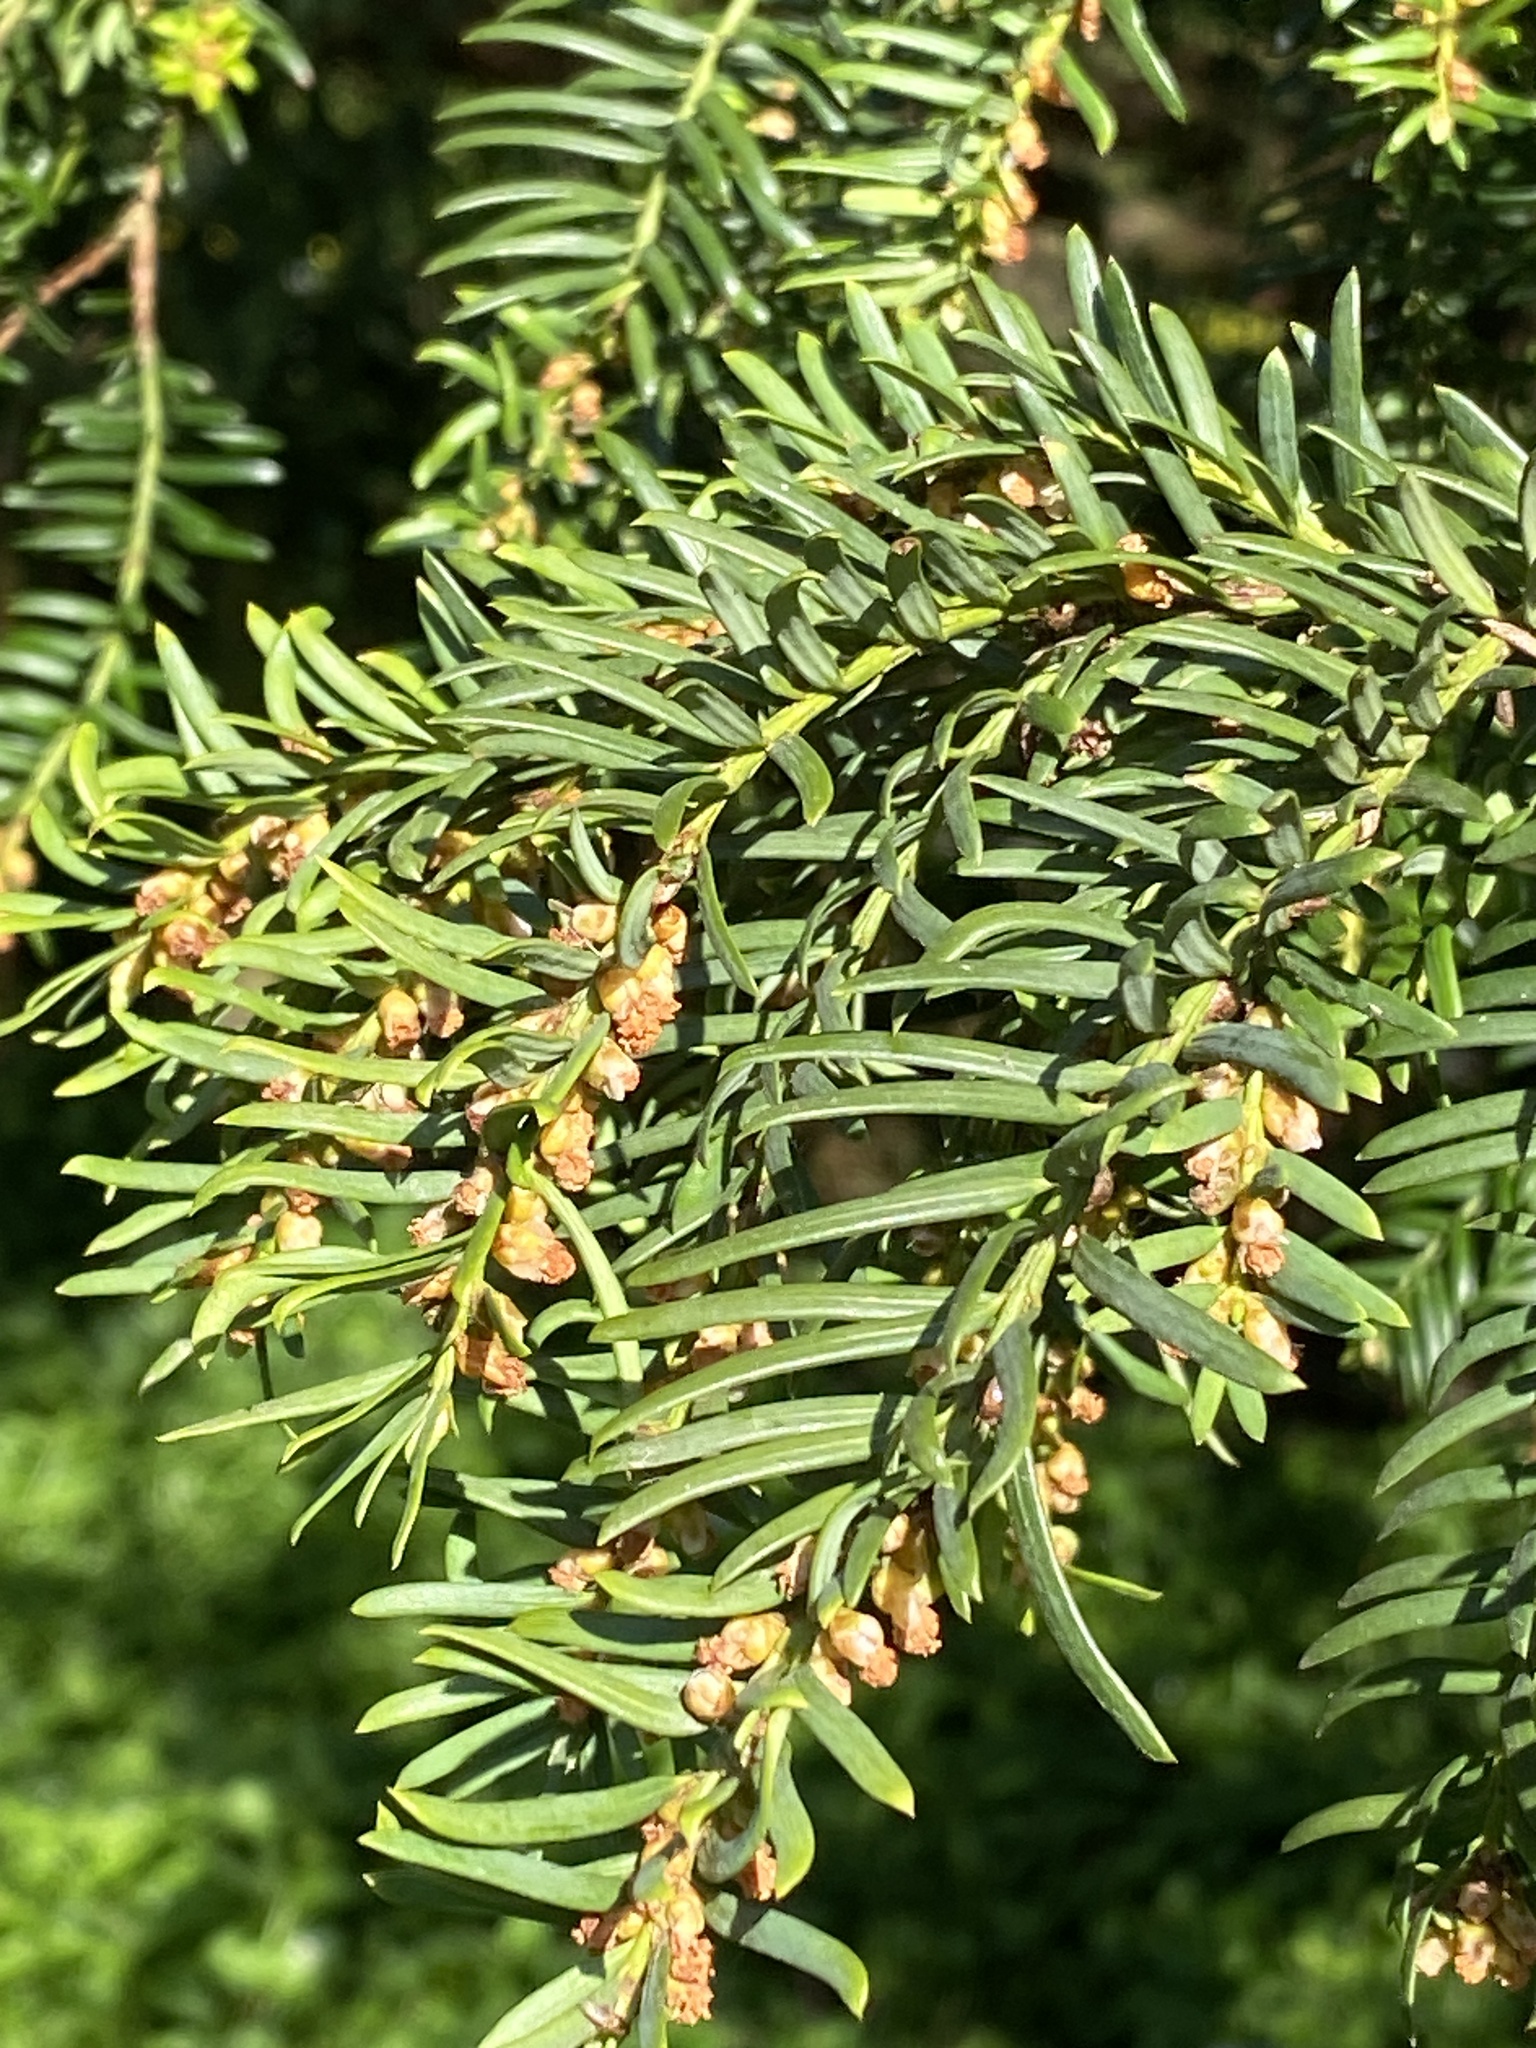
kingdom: Plantae
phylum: Tracheophyta
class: Pinopsida
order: Pinales
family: Taxaceae
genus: Taxus
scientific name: Taxus baccata
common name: Yew
